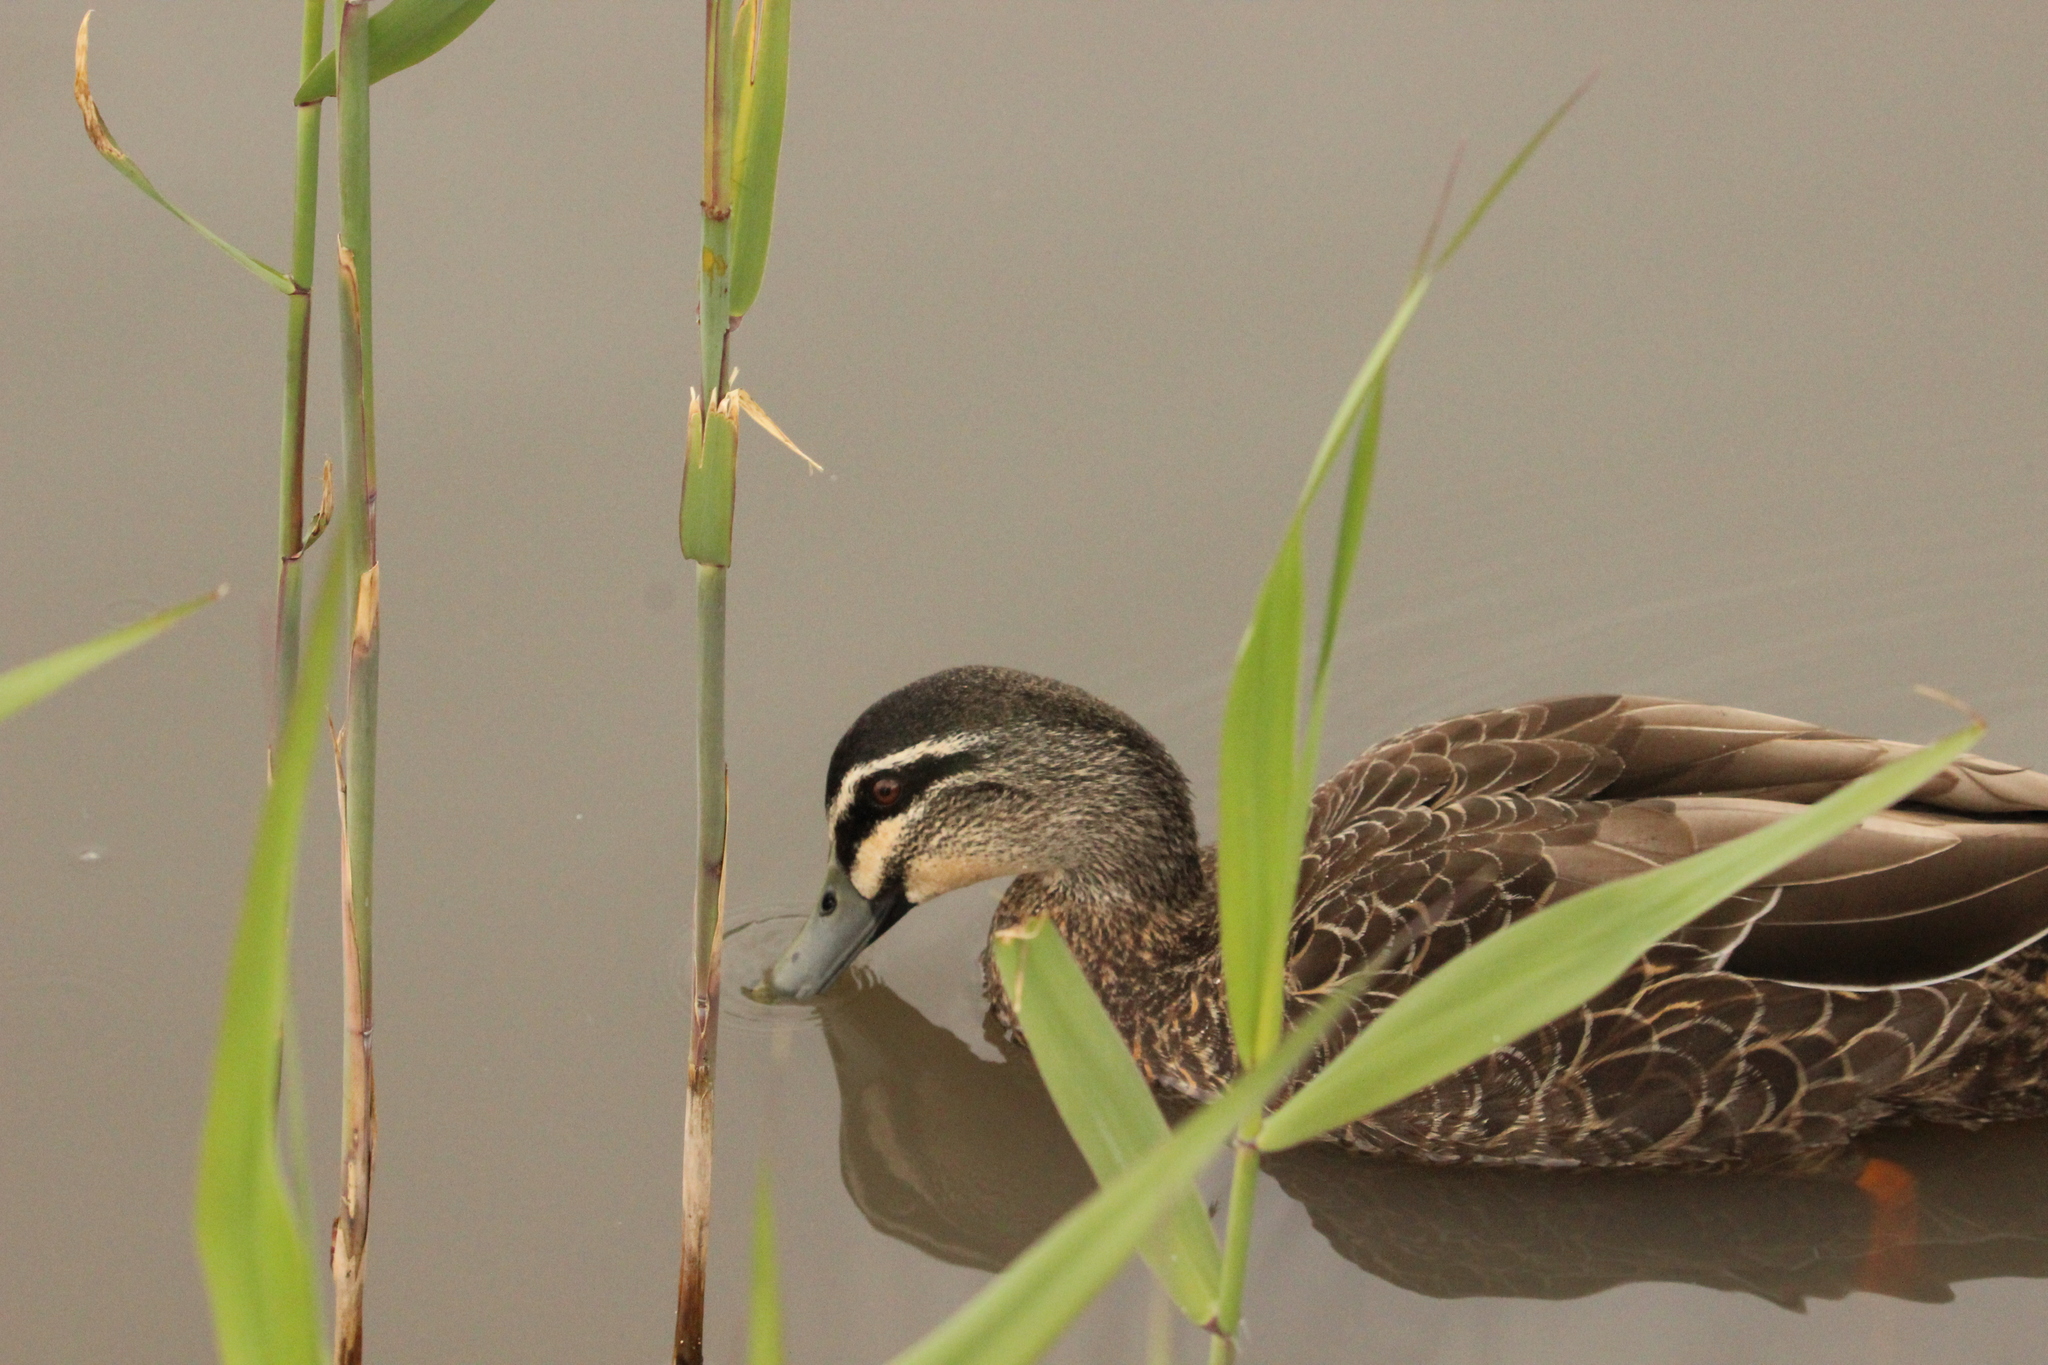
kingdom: Animalia
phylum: Chordata
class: Aves
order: Anseriformes
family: Anatidae
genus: Anas
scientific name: Anas
